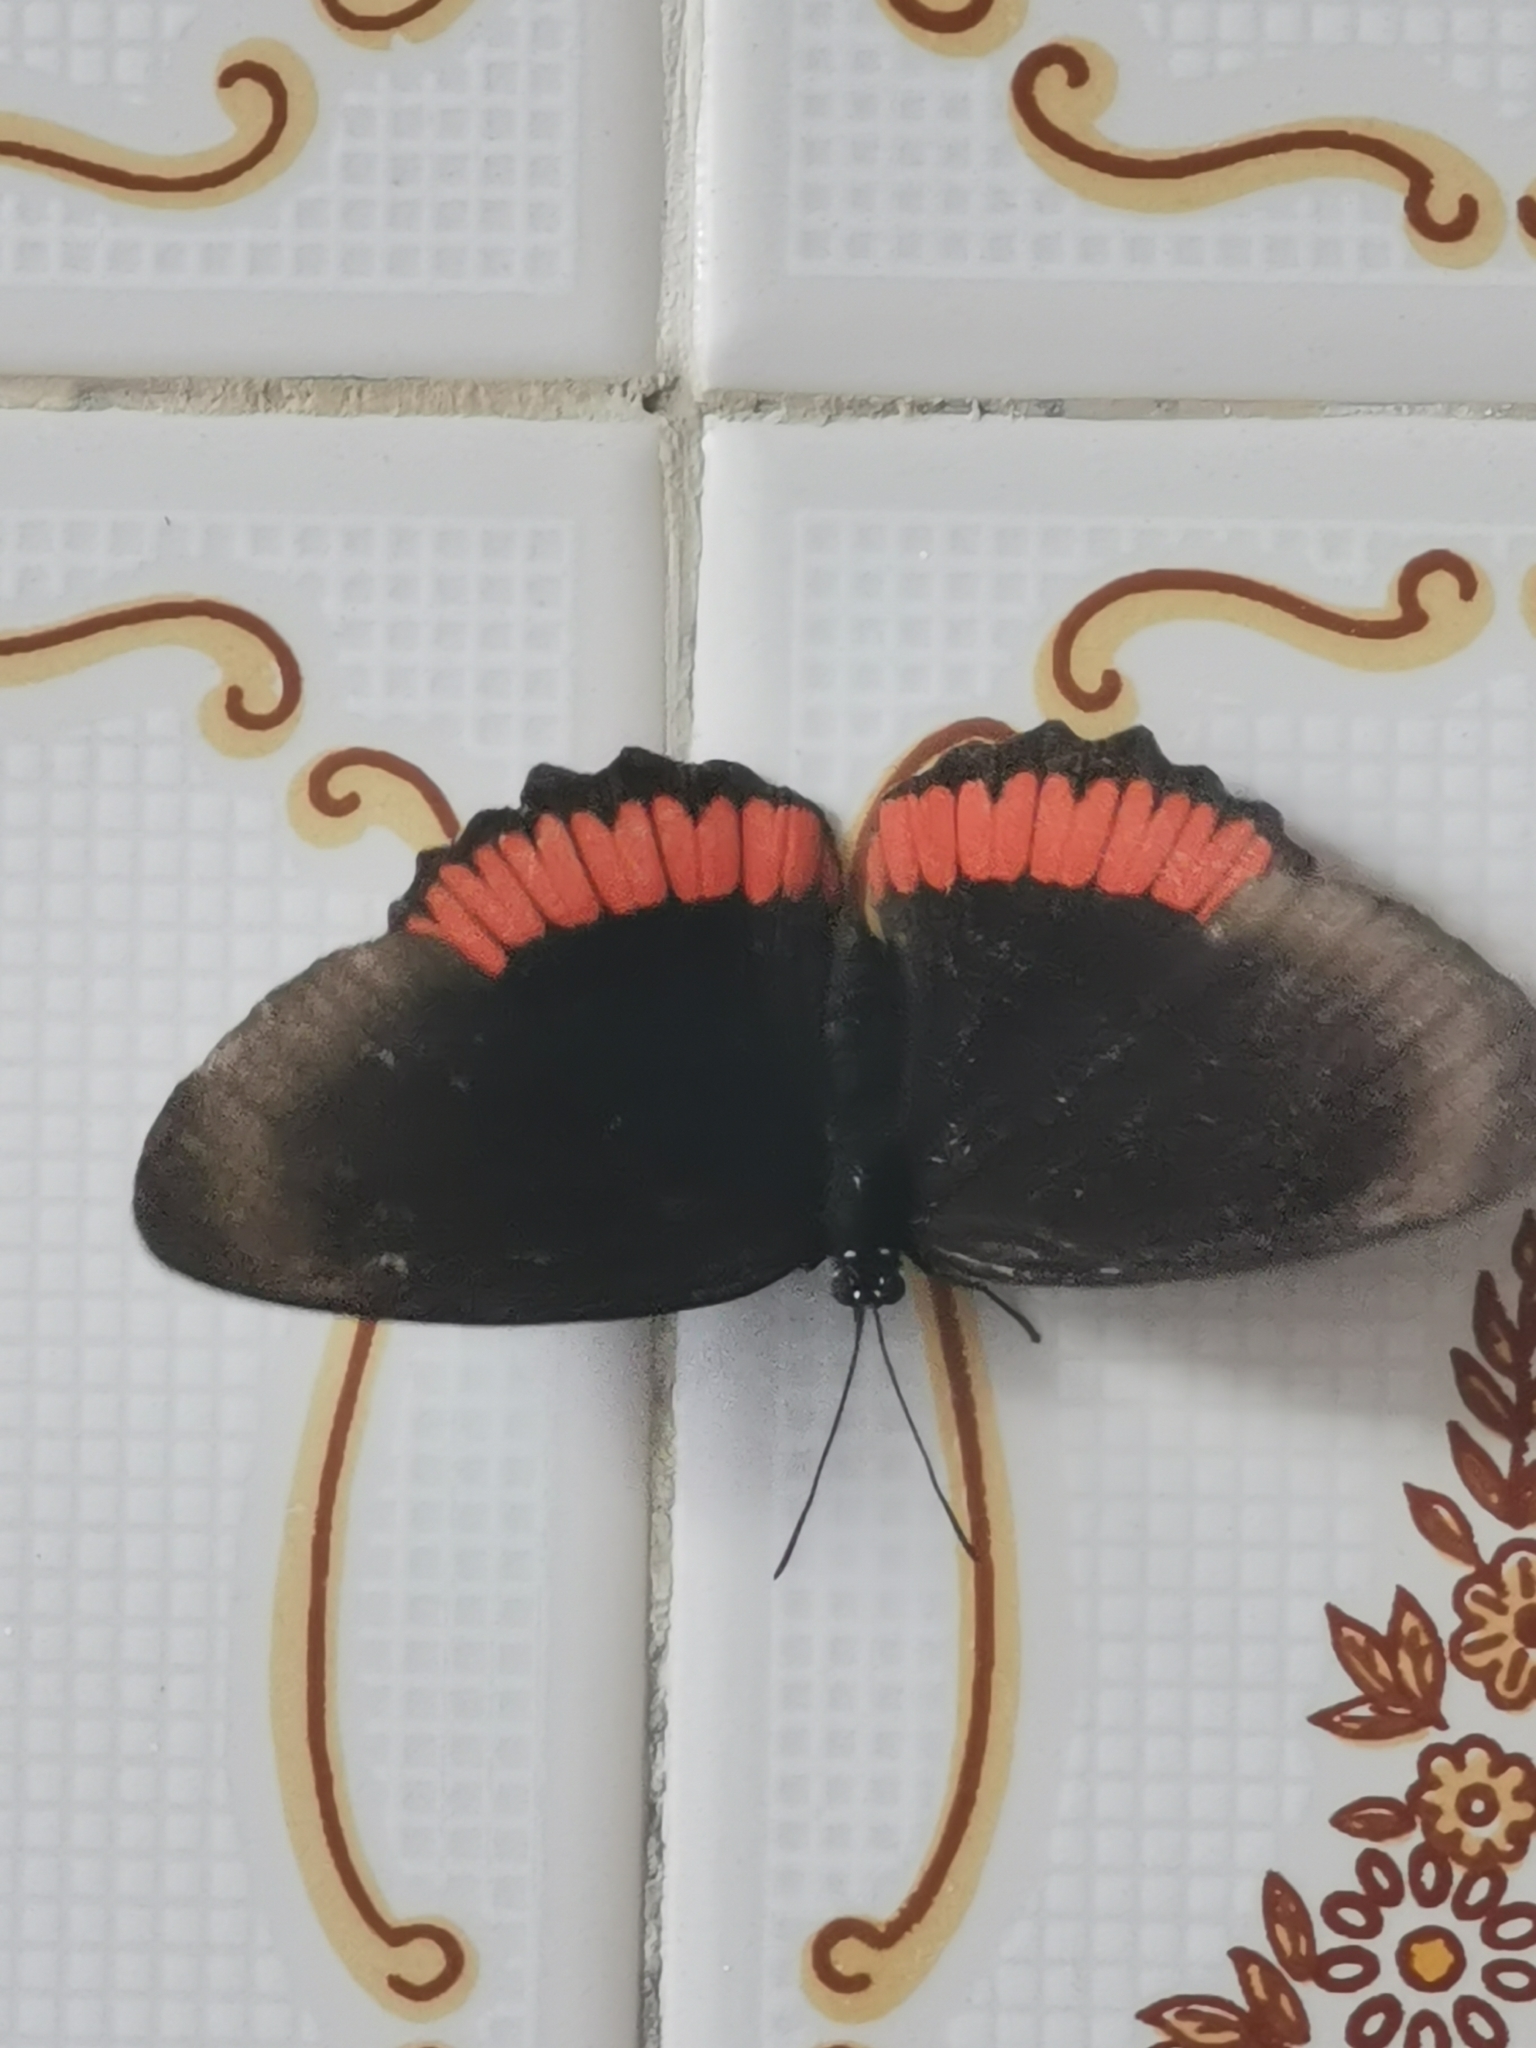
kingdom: Animalia
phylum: Arthropoda
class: Insecta
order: Lepidoptera
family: Sesiidae
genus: Sesia
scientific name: Sesia Biblis hyperia
